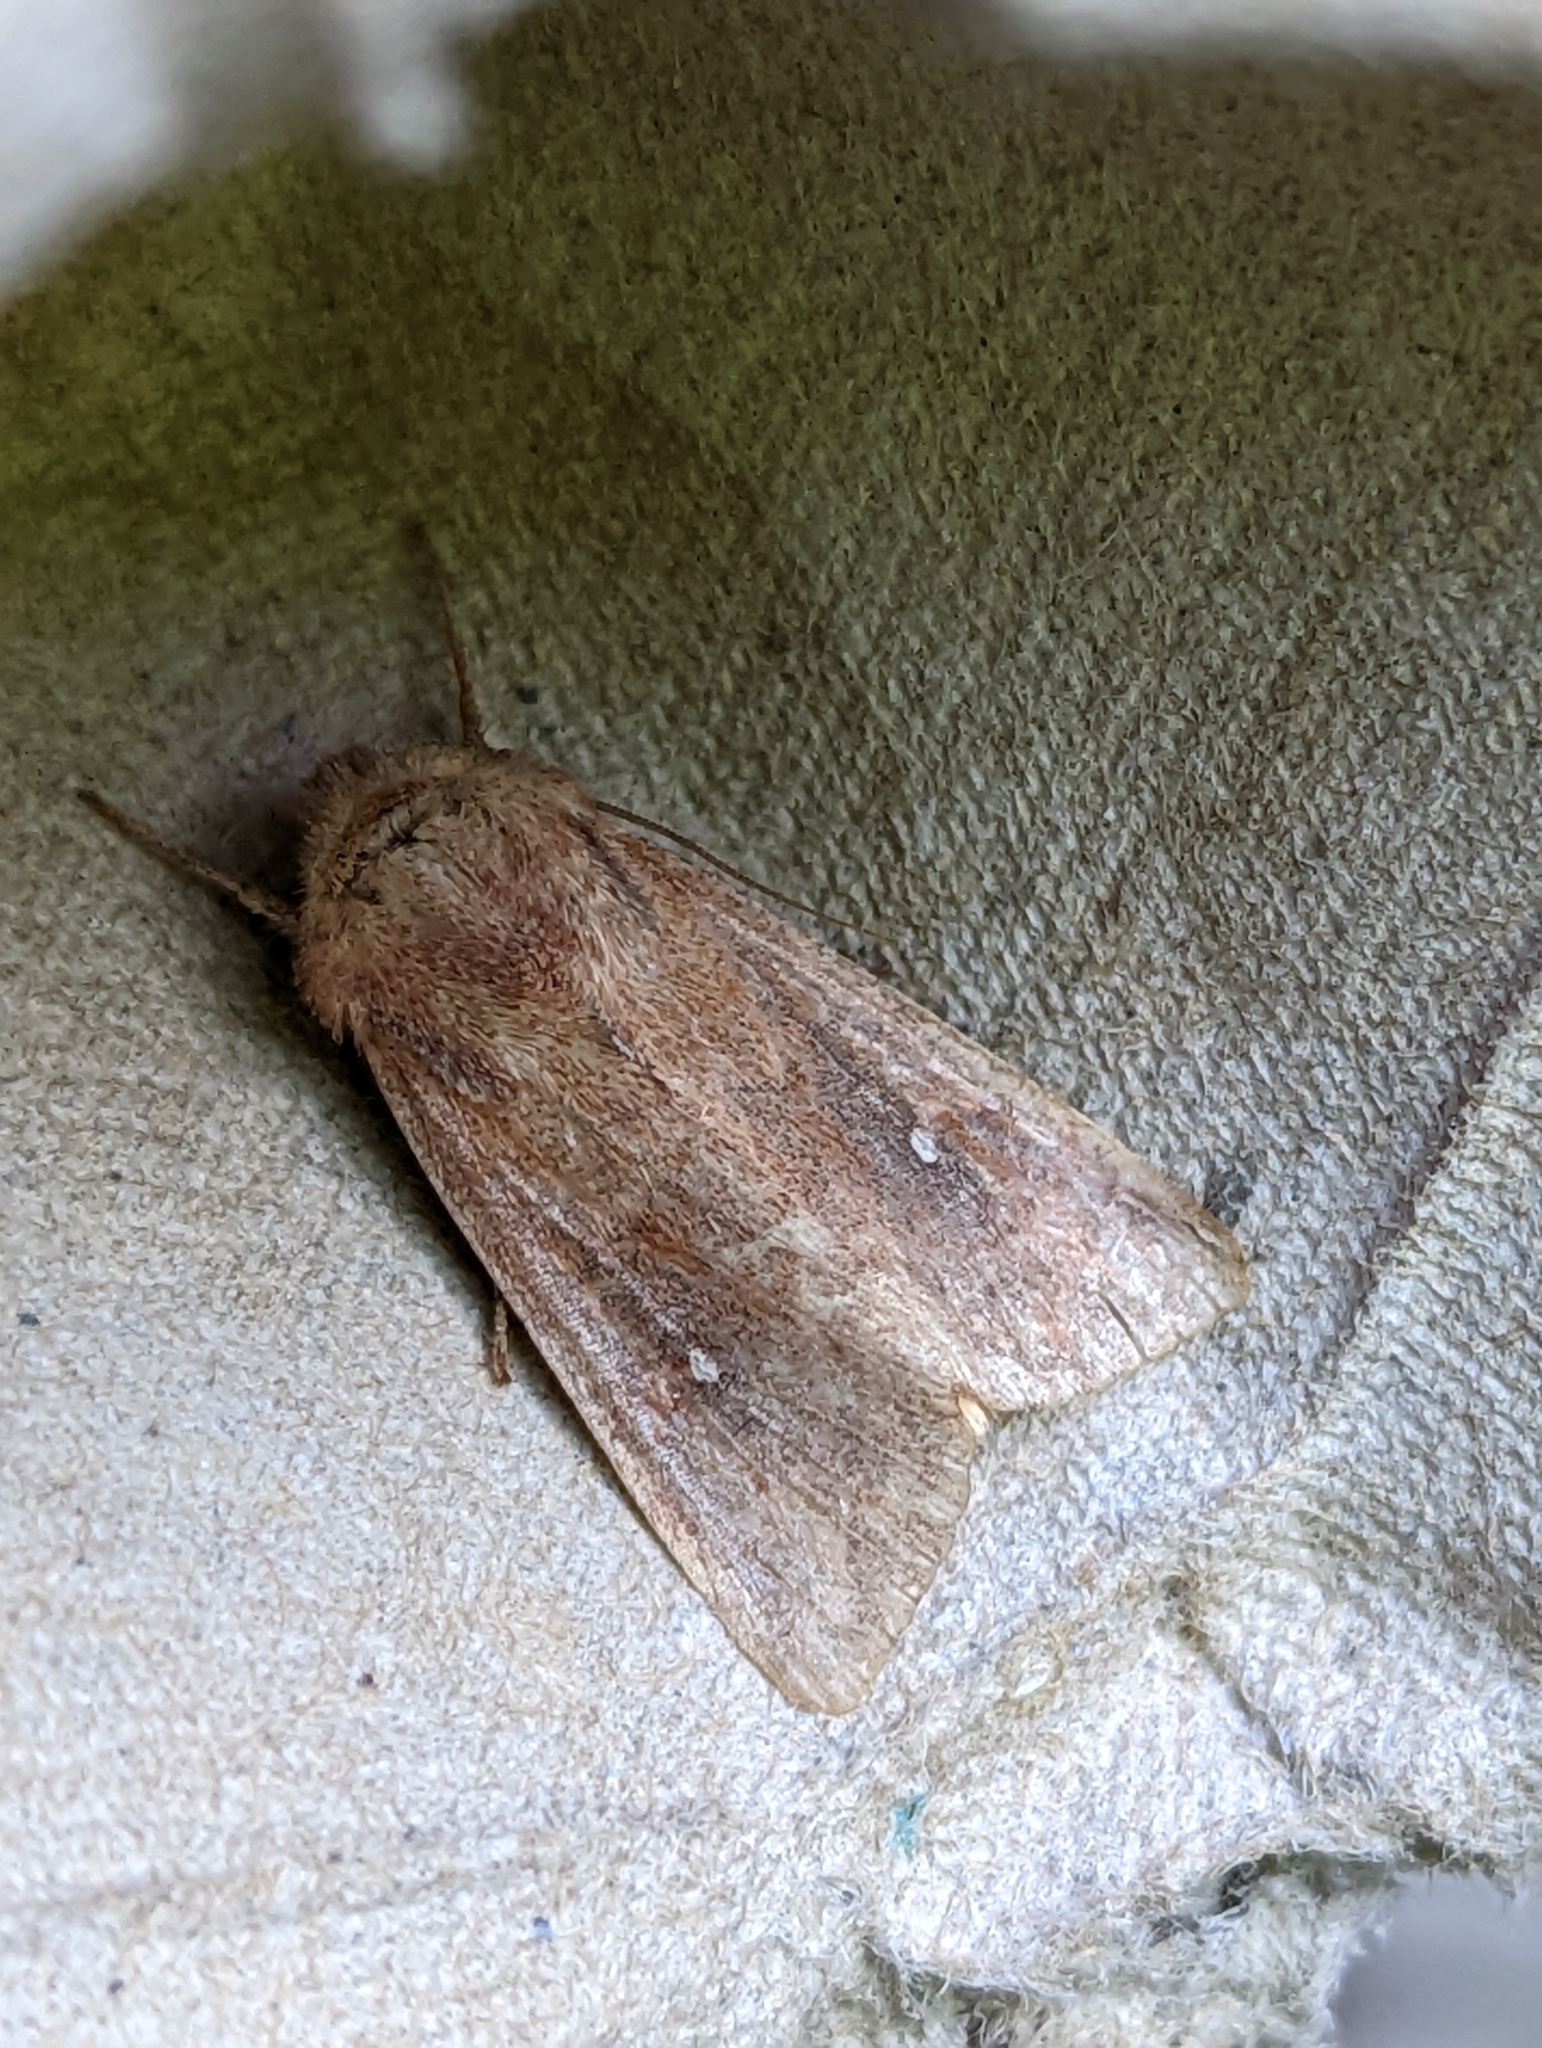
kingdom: Animalia
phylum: Arthropoda
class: Insecta
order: Lepidoptera
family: Noctuidae
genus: Mythimna
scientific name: Mythimna albipuncta
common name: White-point
